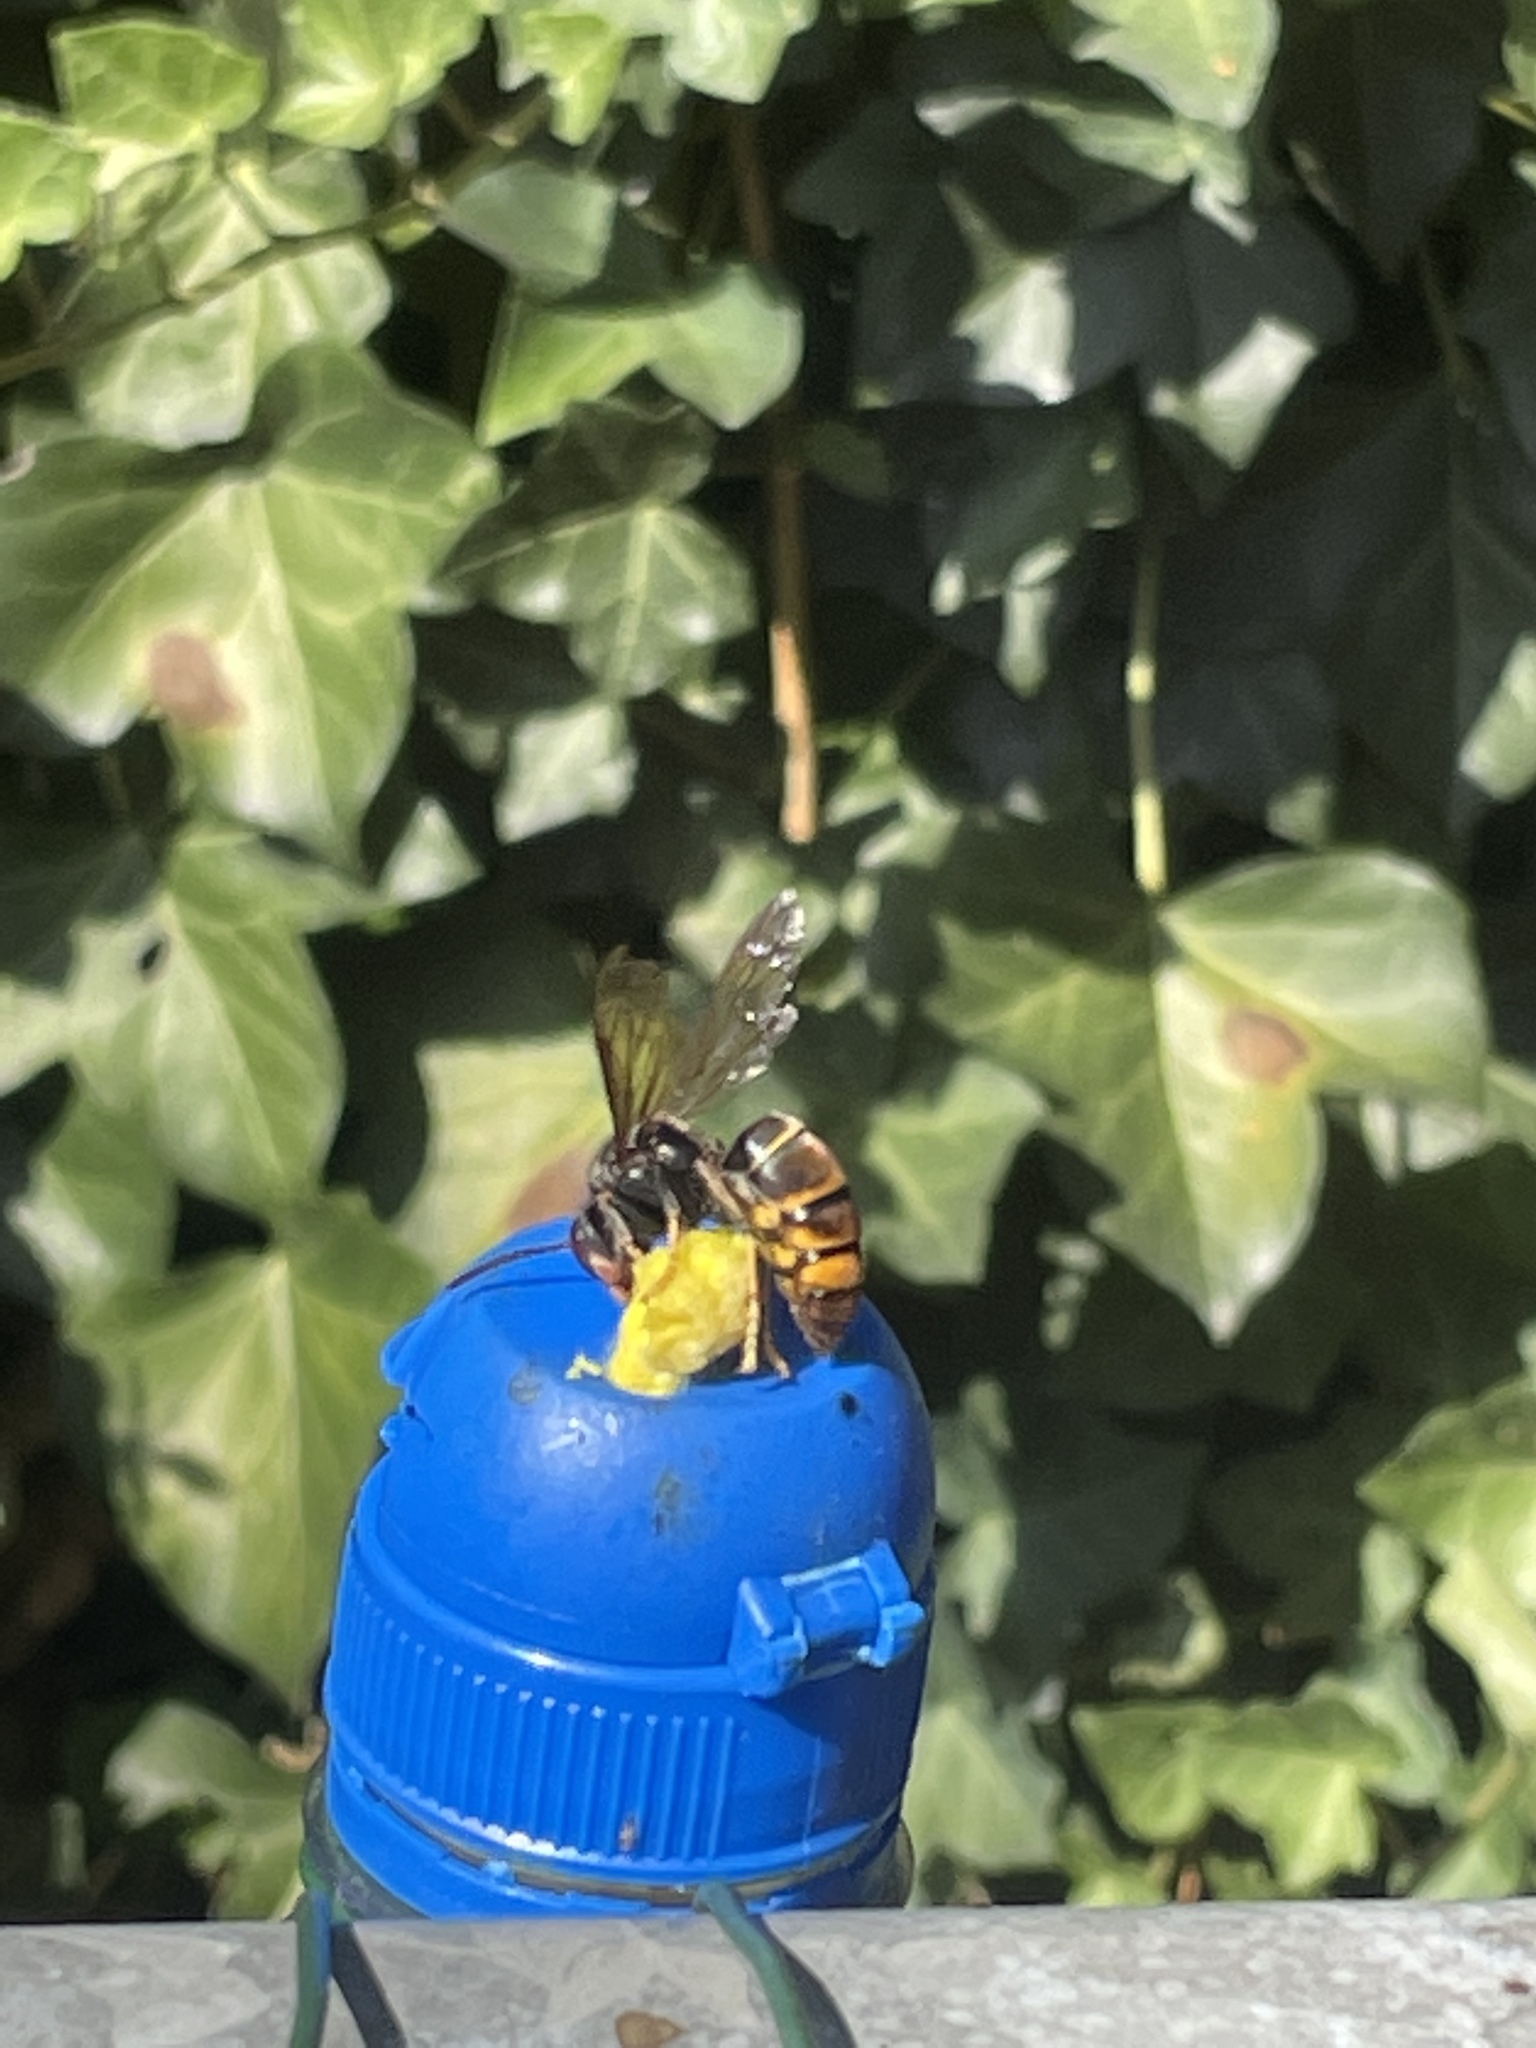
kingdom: Animalia
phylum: Arthropoda
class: Insecta
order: Hymenoptera
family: Vespidae
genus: Vespa
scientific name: Vespa velutina
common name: Asian hornet
